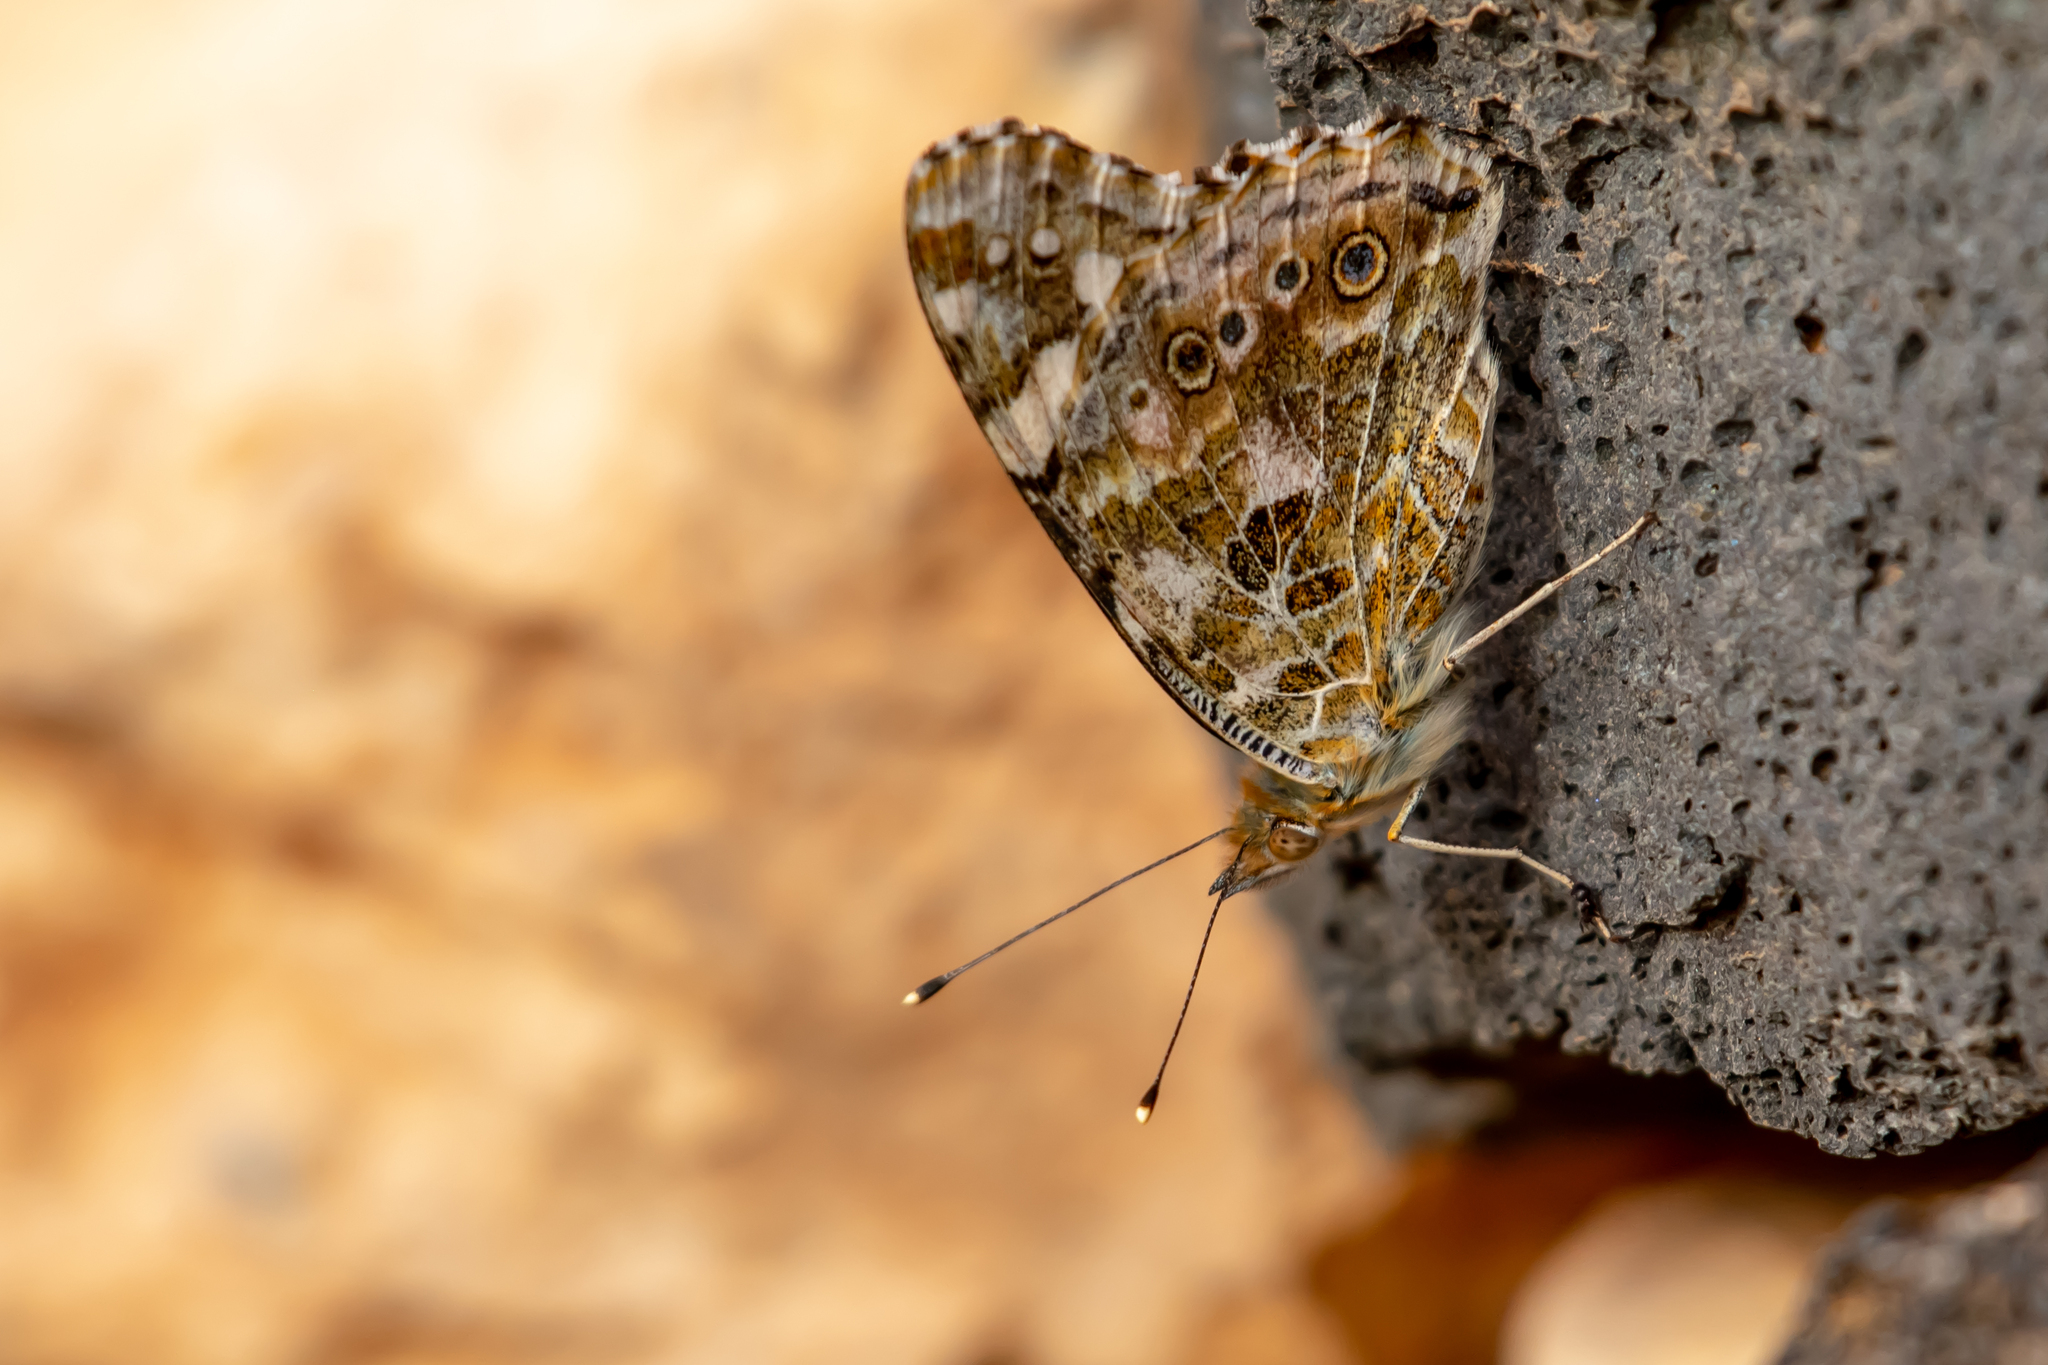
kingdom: Animalia
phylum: Arthropoda
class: Insecta
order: Lepidoptera
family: Nymphalidae
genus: Vanessa
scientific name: Vanessa cardui
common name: Painted lady
